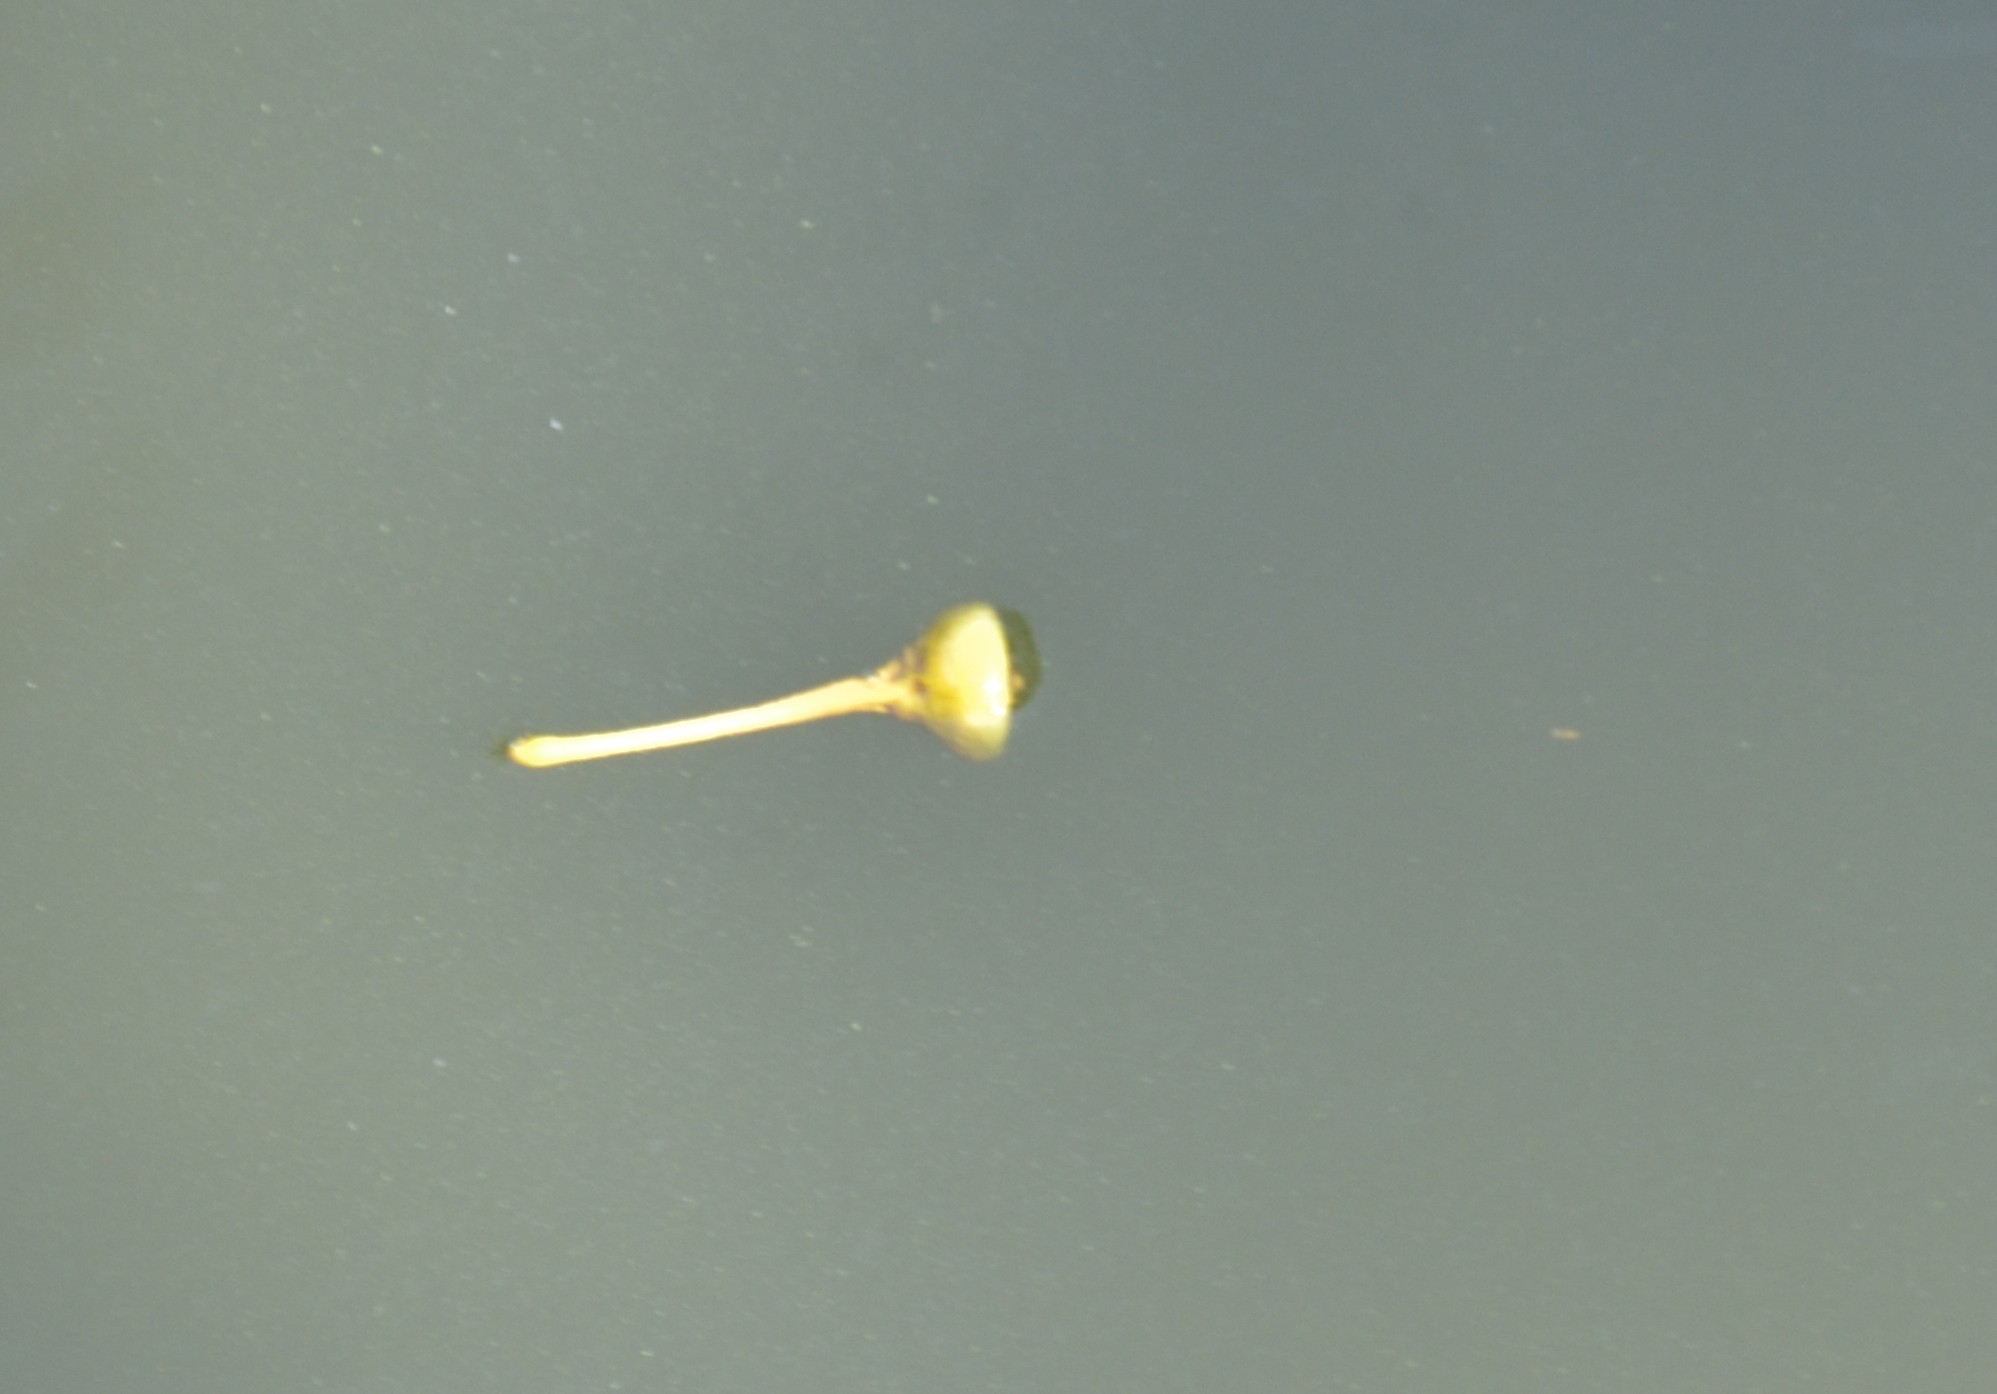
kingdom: Plantae
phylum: Tracheophyta
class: Magnoliopsida
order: Malvales
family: Malvaceae
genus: Thespesia
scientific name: Thespesia populnea
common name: Seaside mahoe
